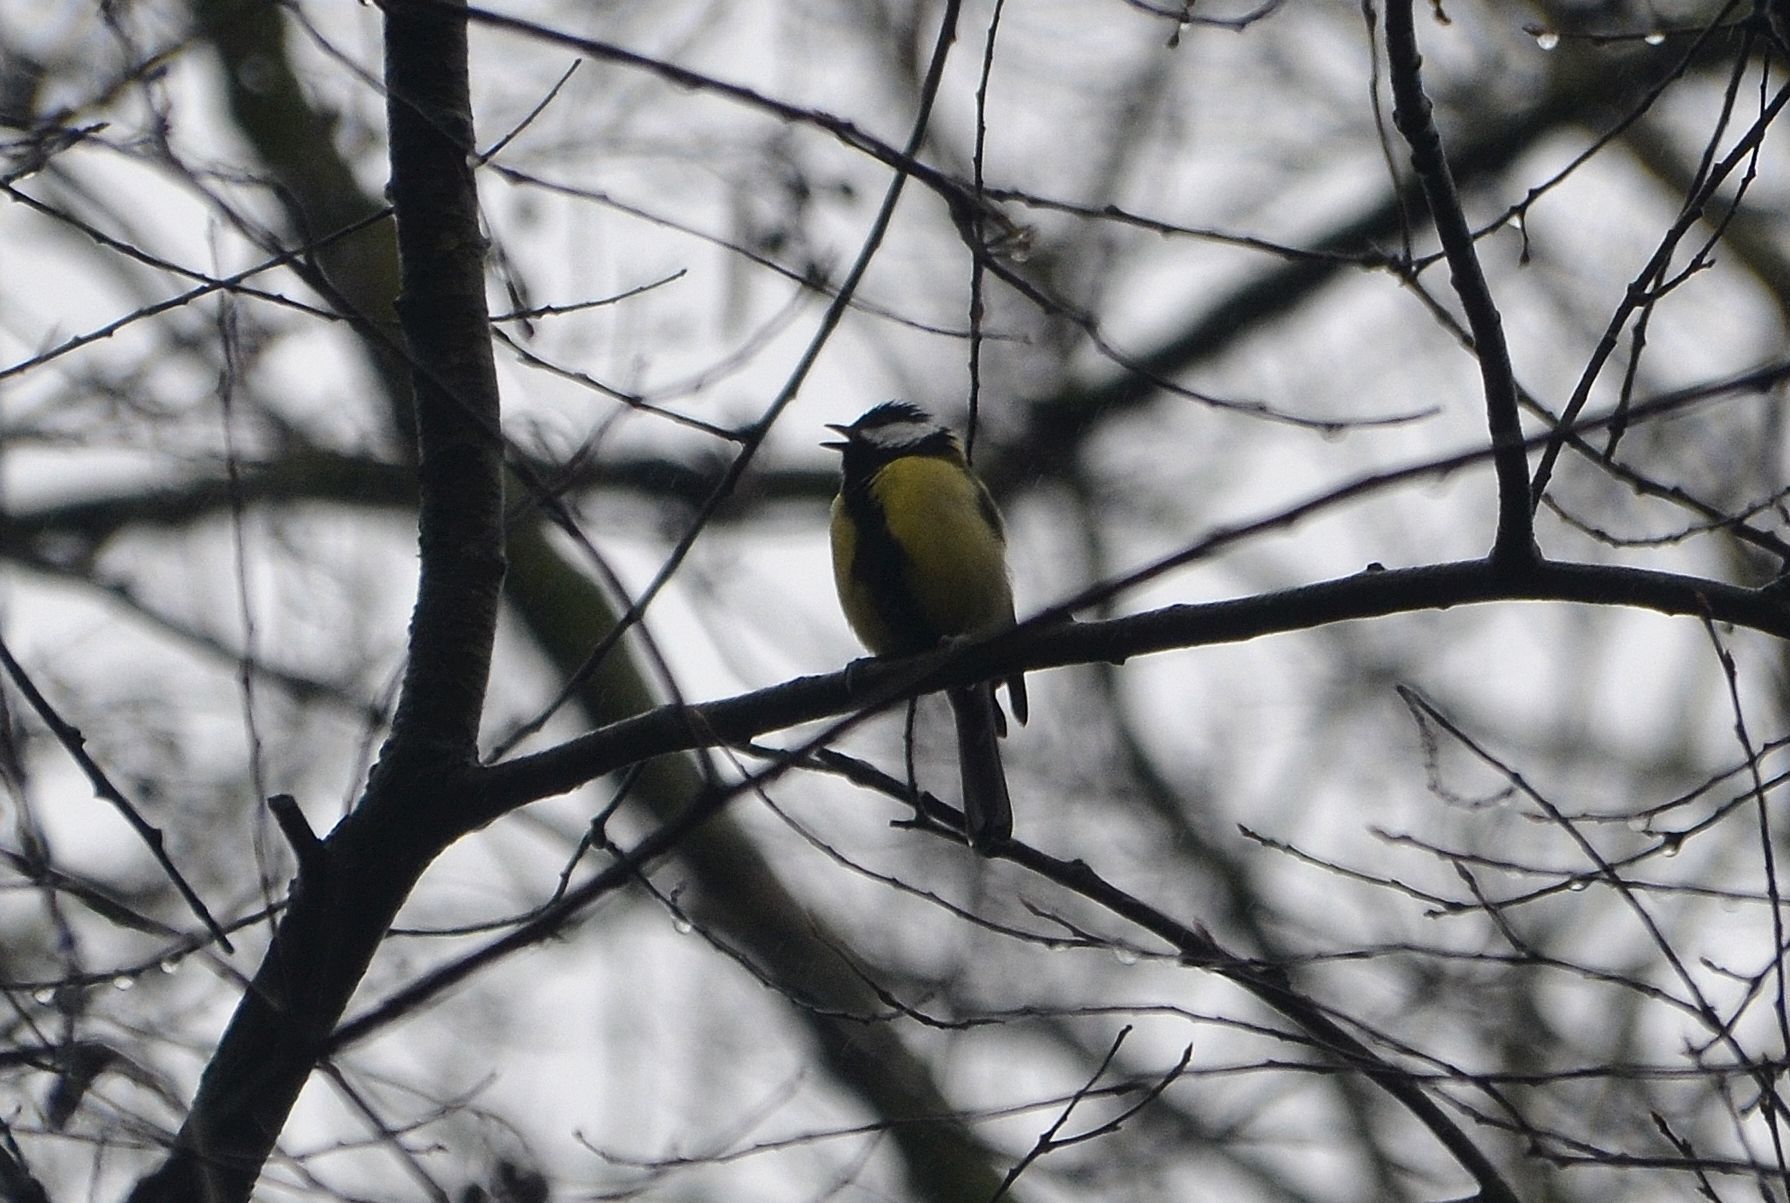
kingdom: Animalia
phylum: Chordata
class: Aves
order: Passeriformes
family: Paridae
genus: Parus
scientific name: Parus major
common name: Great tit
